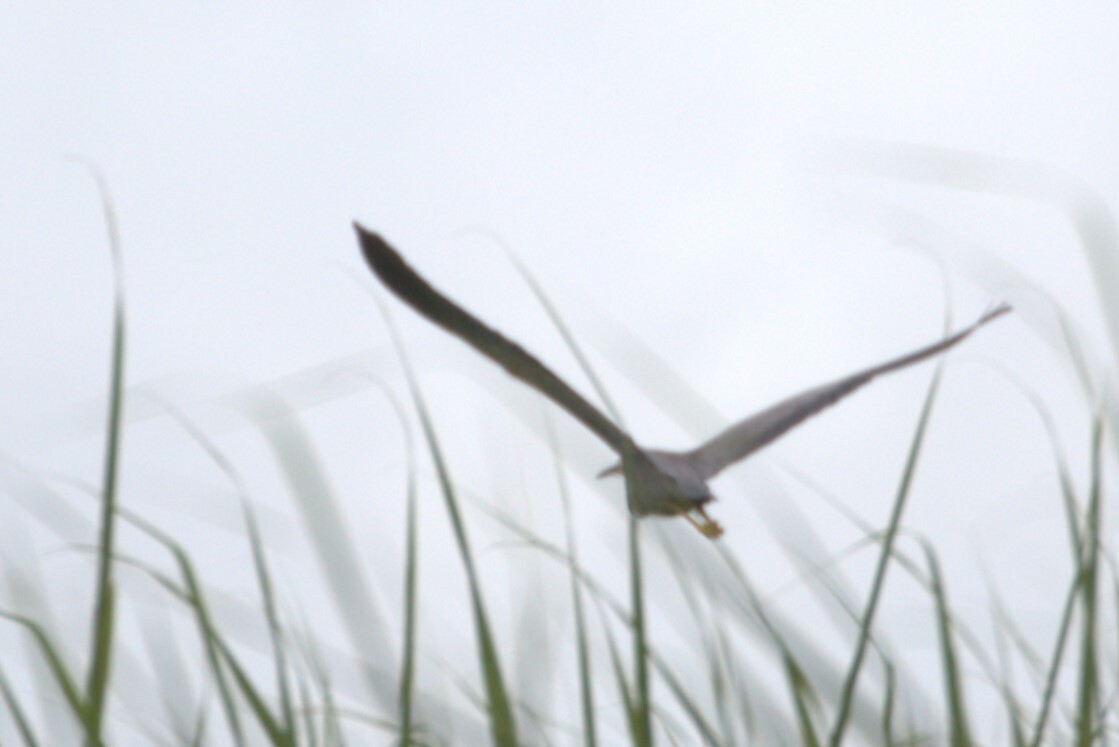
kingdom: Animalia
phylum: Chordata
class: Aves
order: Pelecaniformes
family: Ardeidae
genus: Egretta
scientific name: Egretta novaehollandiae
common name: White-faced heron
